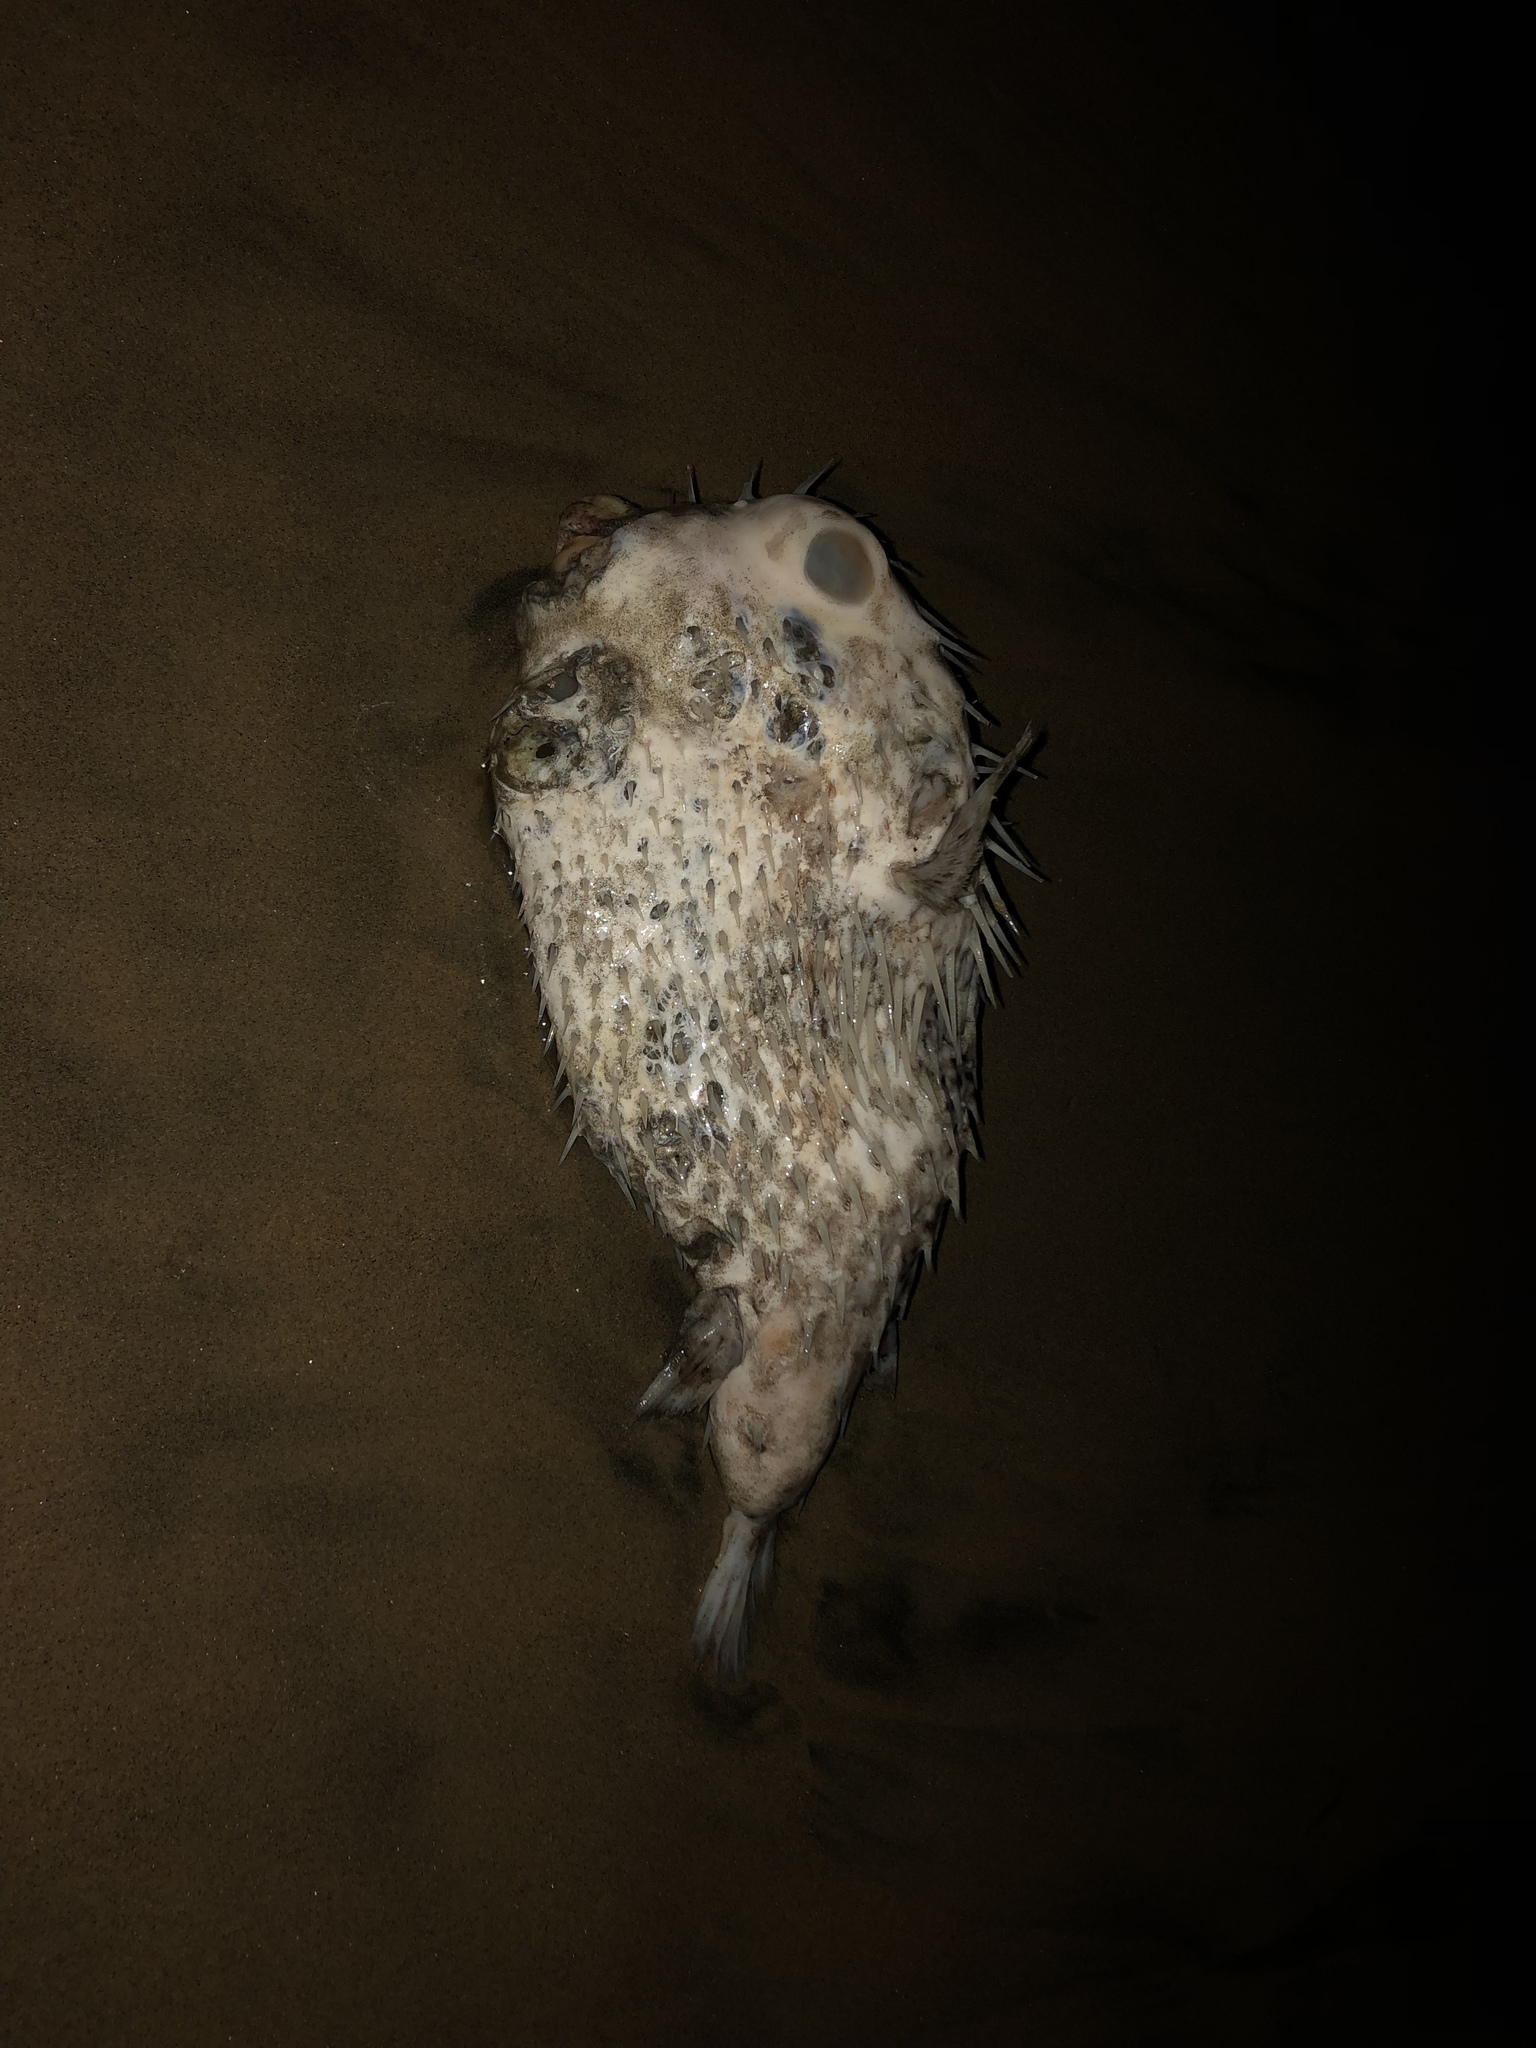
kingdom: Animalia
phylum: Chordata
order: Tetraodontiformes
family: Diodontidae
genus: Diodon
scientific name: Diodon holocanthus
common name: Balloonfish
